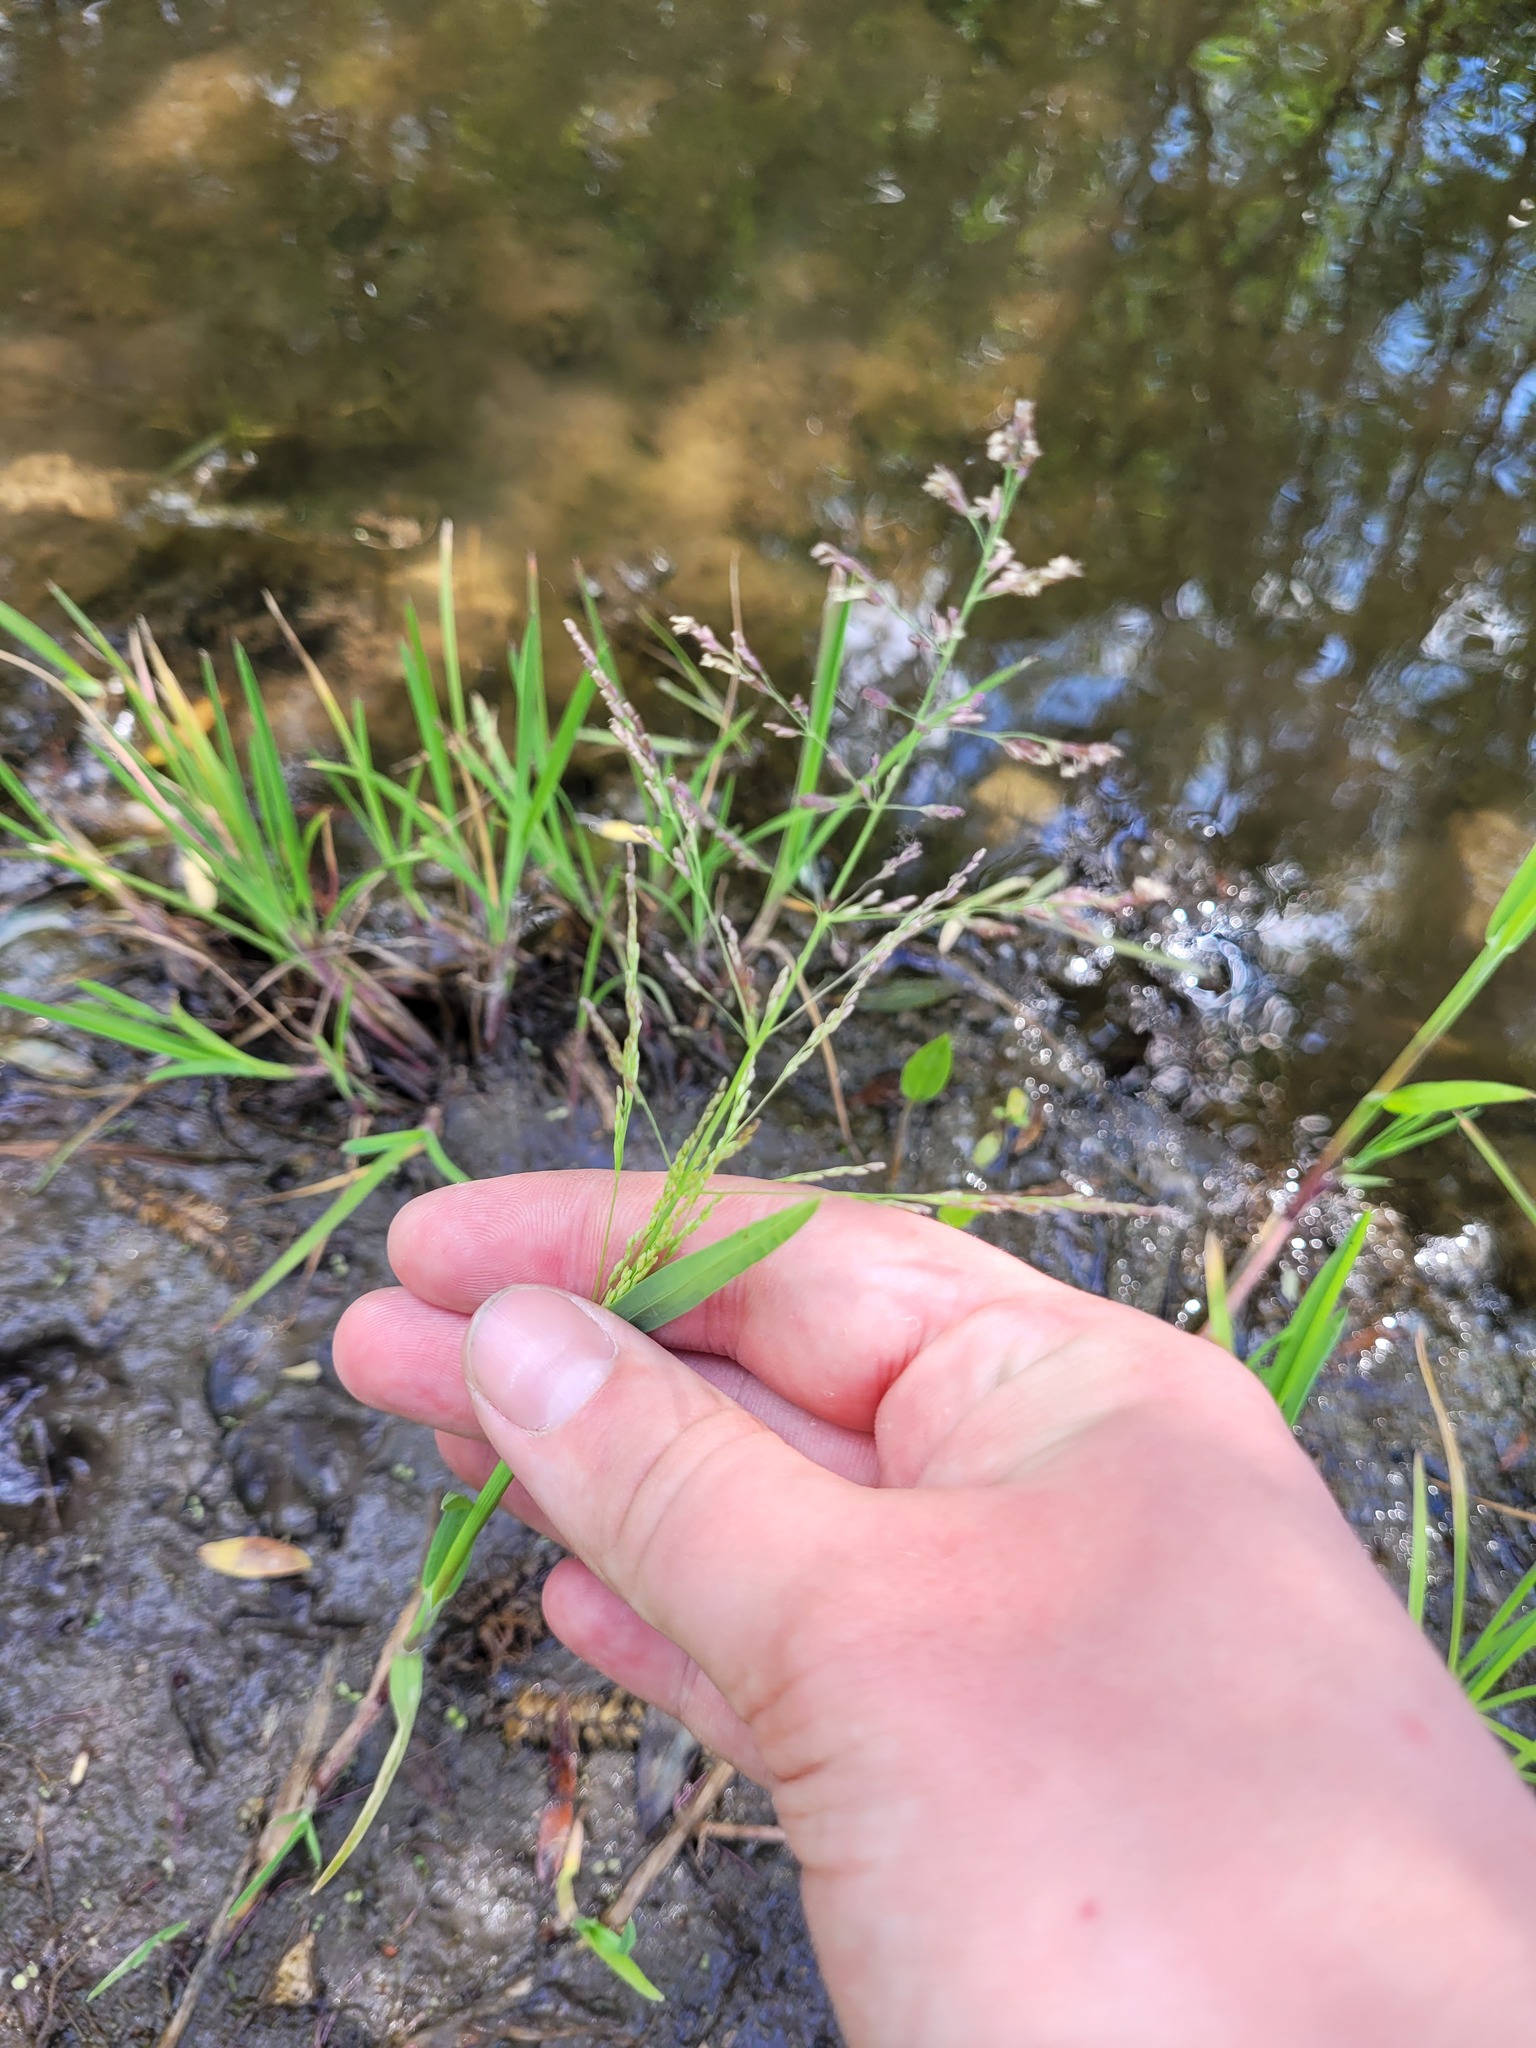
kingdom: Plantae
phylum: Tracheophyta
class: Liliopsida
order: Poales
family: Poaceae
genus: Catabrosa
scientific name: Catabrosa aquatica
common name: Whorl-grass
